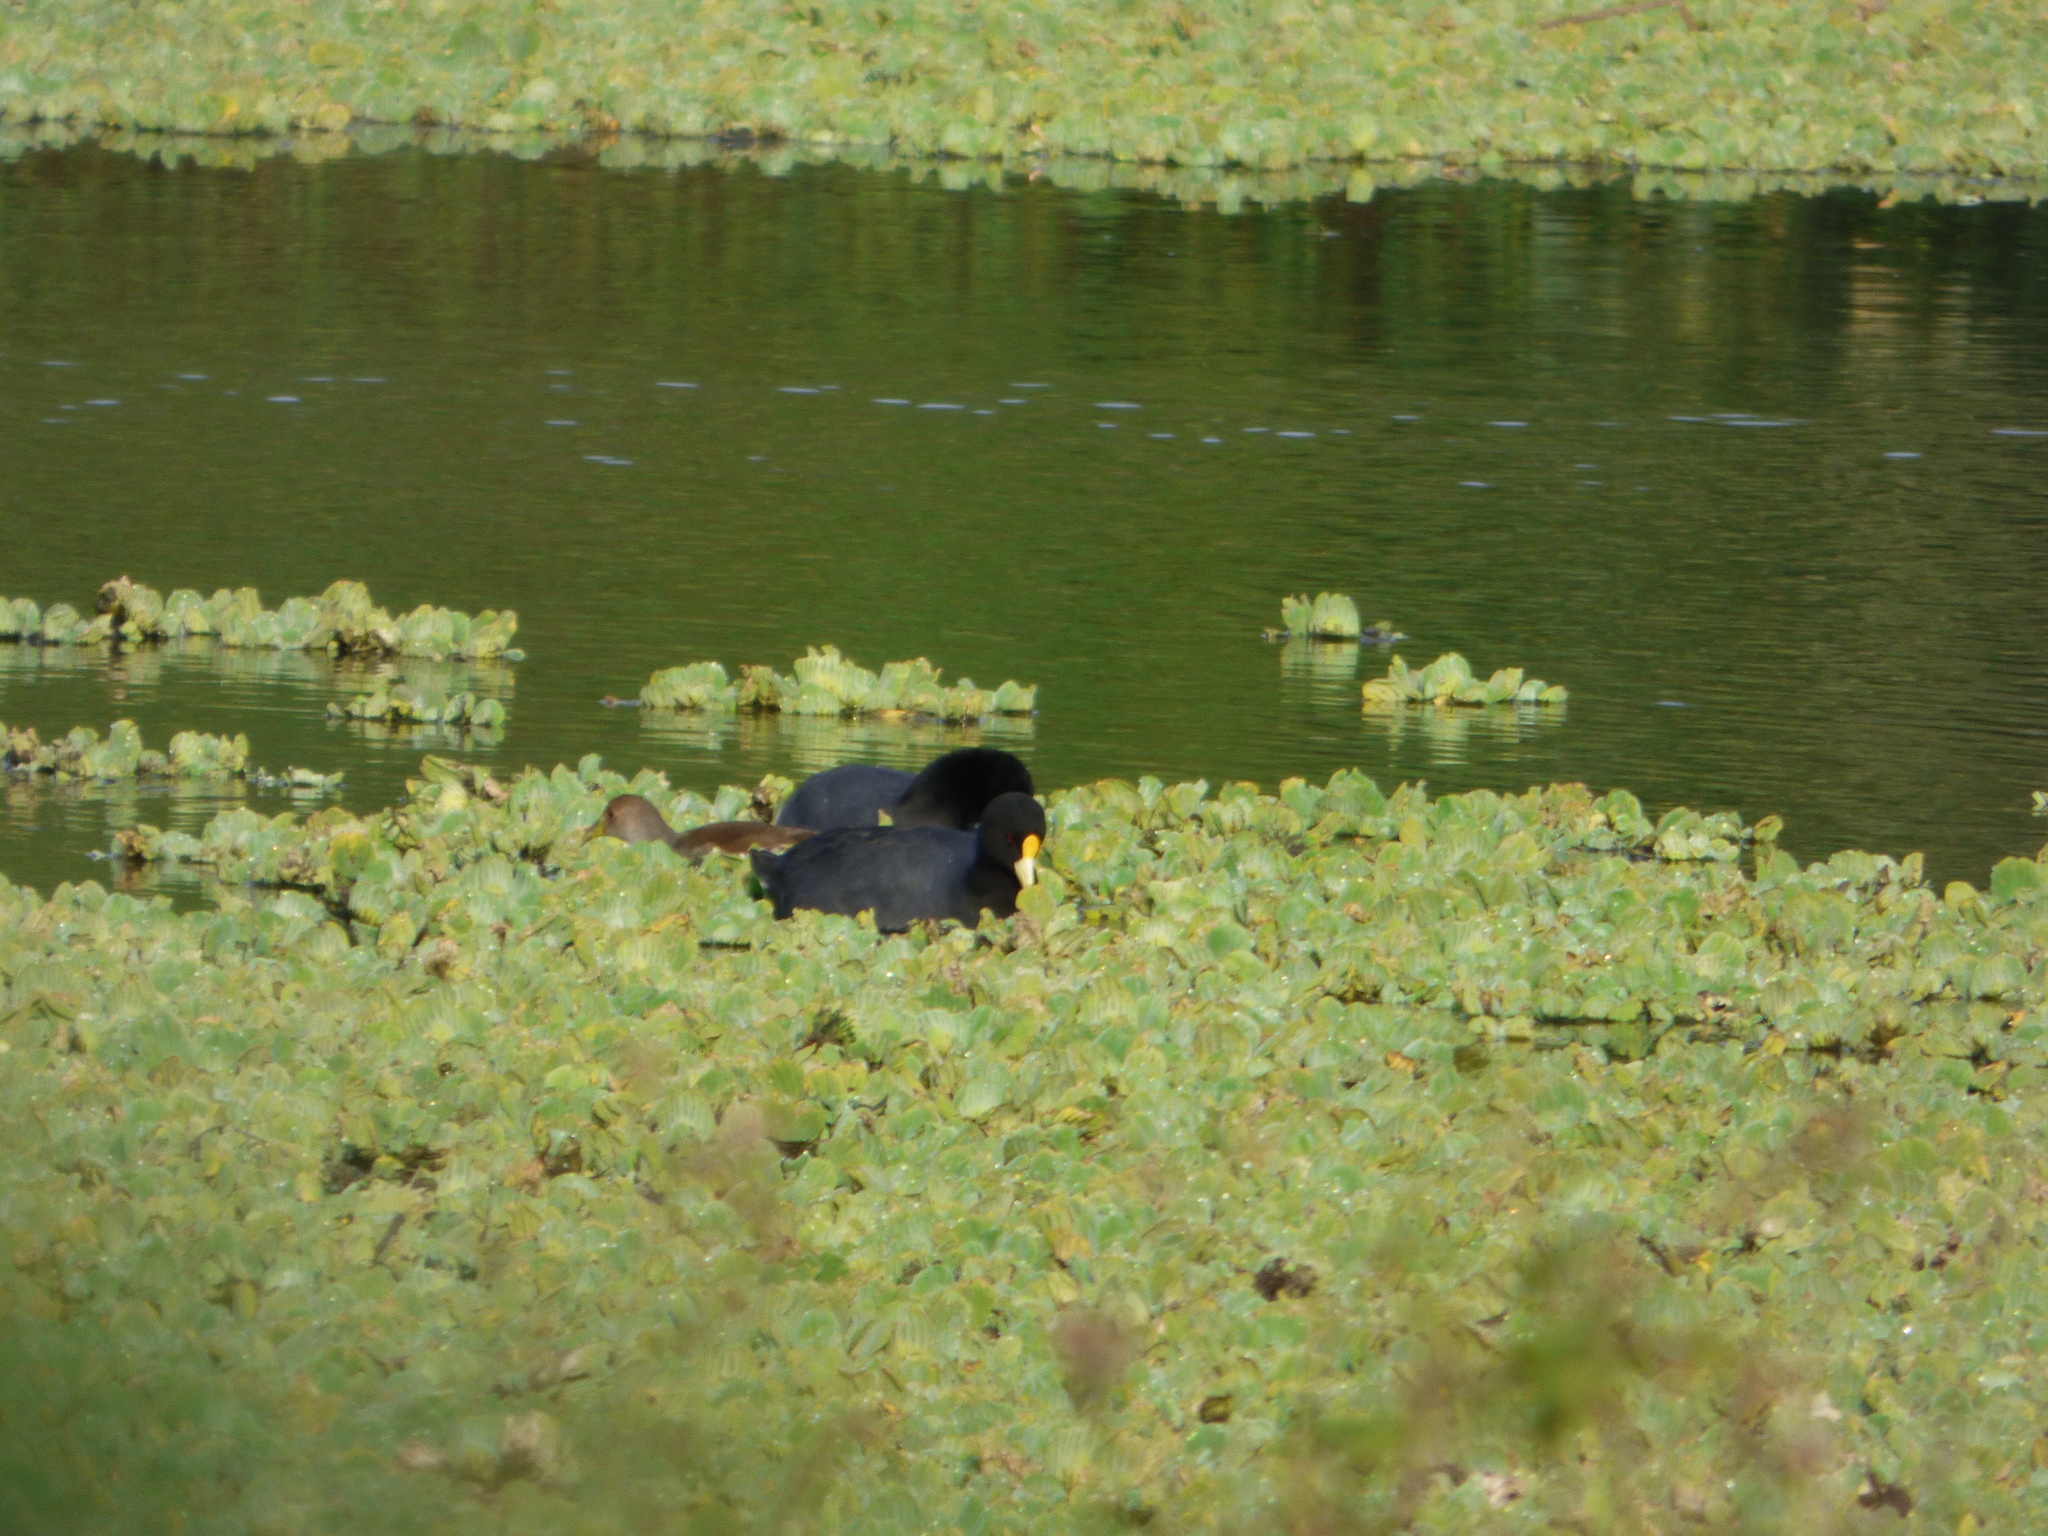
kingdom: Animalia
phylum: Chordata
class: Aves
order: Gruiformes
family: Rallidae
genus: Fulica
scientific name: Fulica leucoptera
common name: White-winged coot
